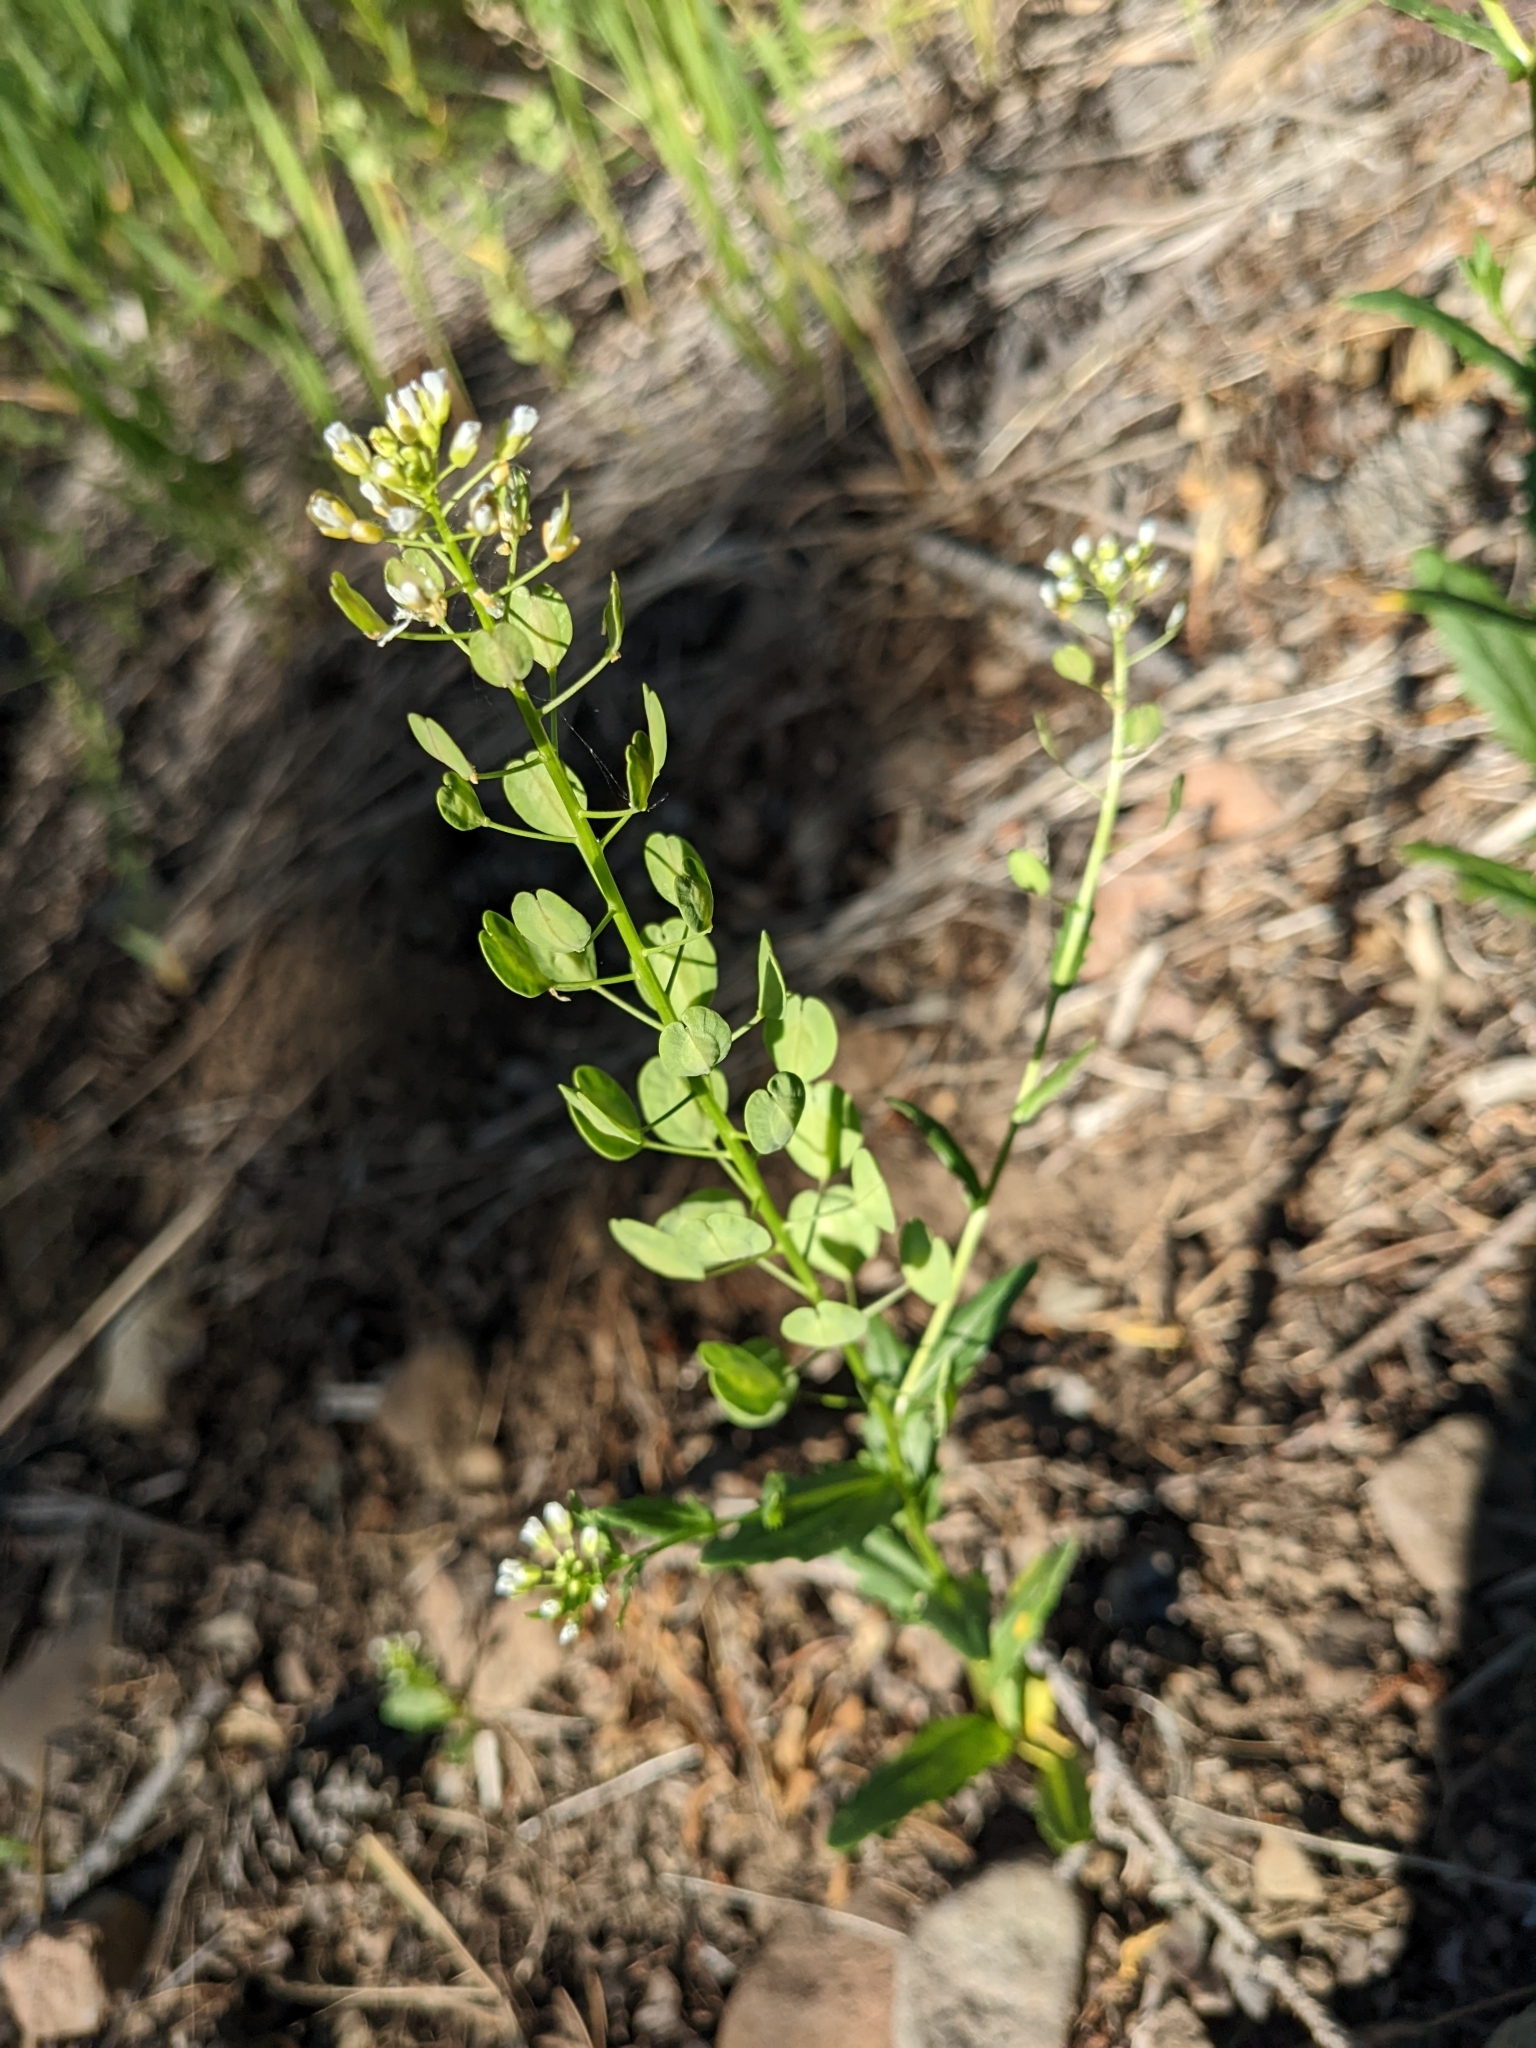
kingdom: Plantae
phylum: Tracheophyta
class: Magnoliopsida
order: Brassicales
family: Brassicaceae
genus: Thlaspi
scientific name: Thlaspi arvense
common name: Field pennycress
